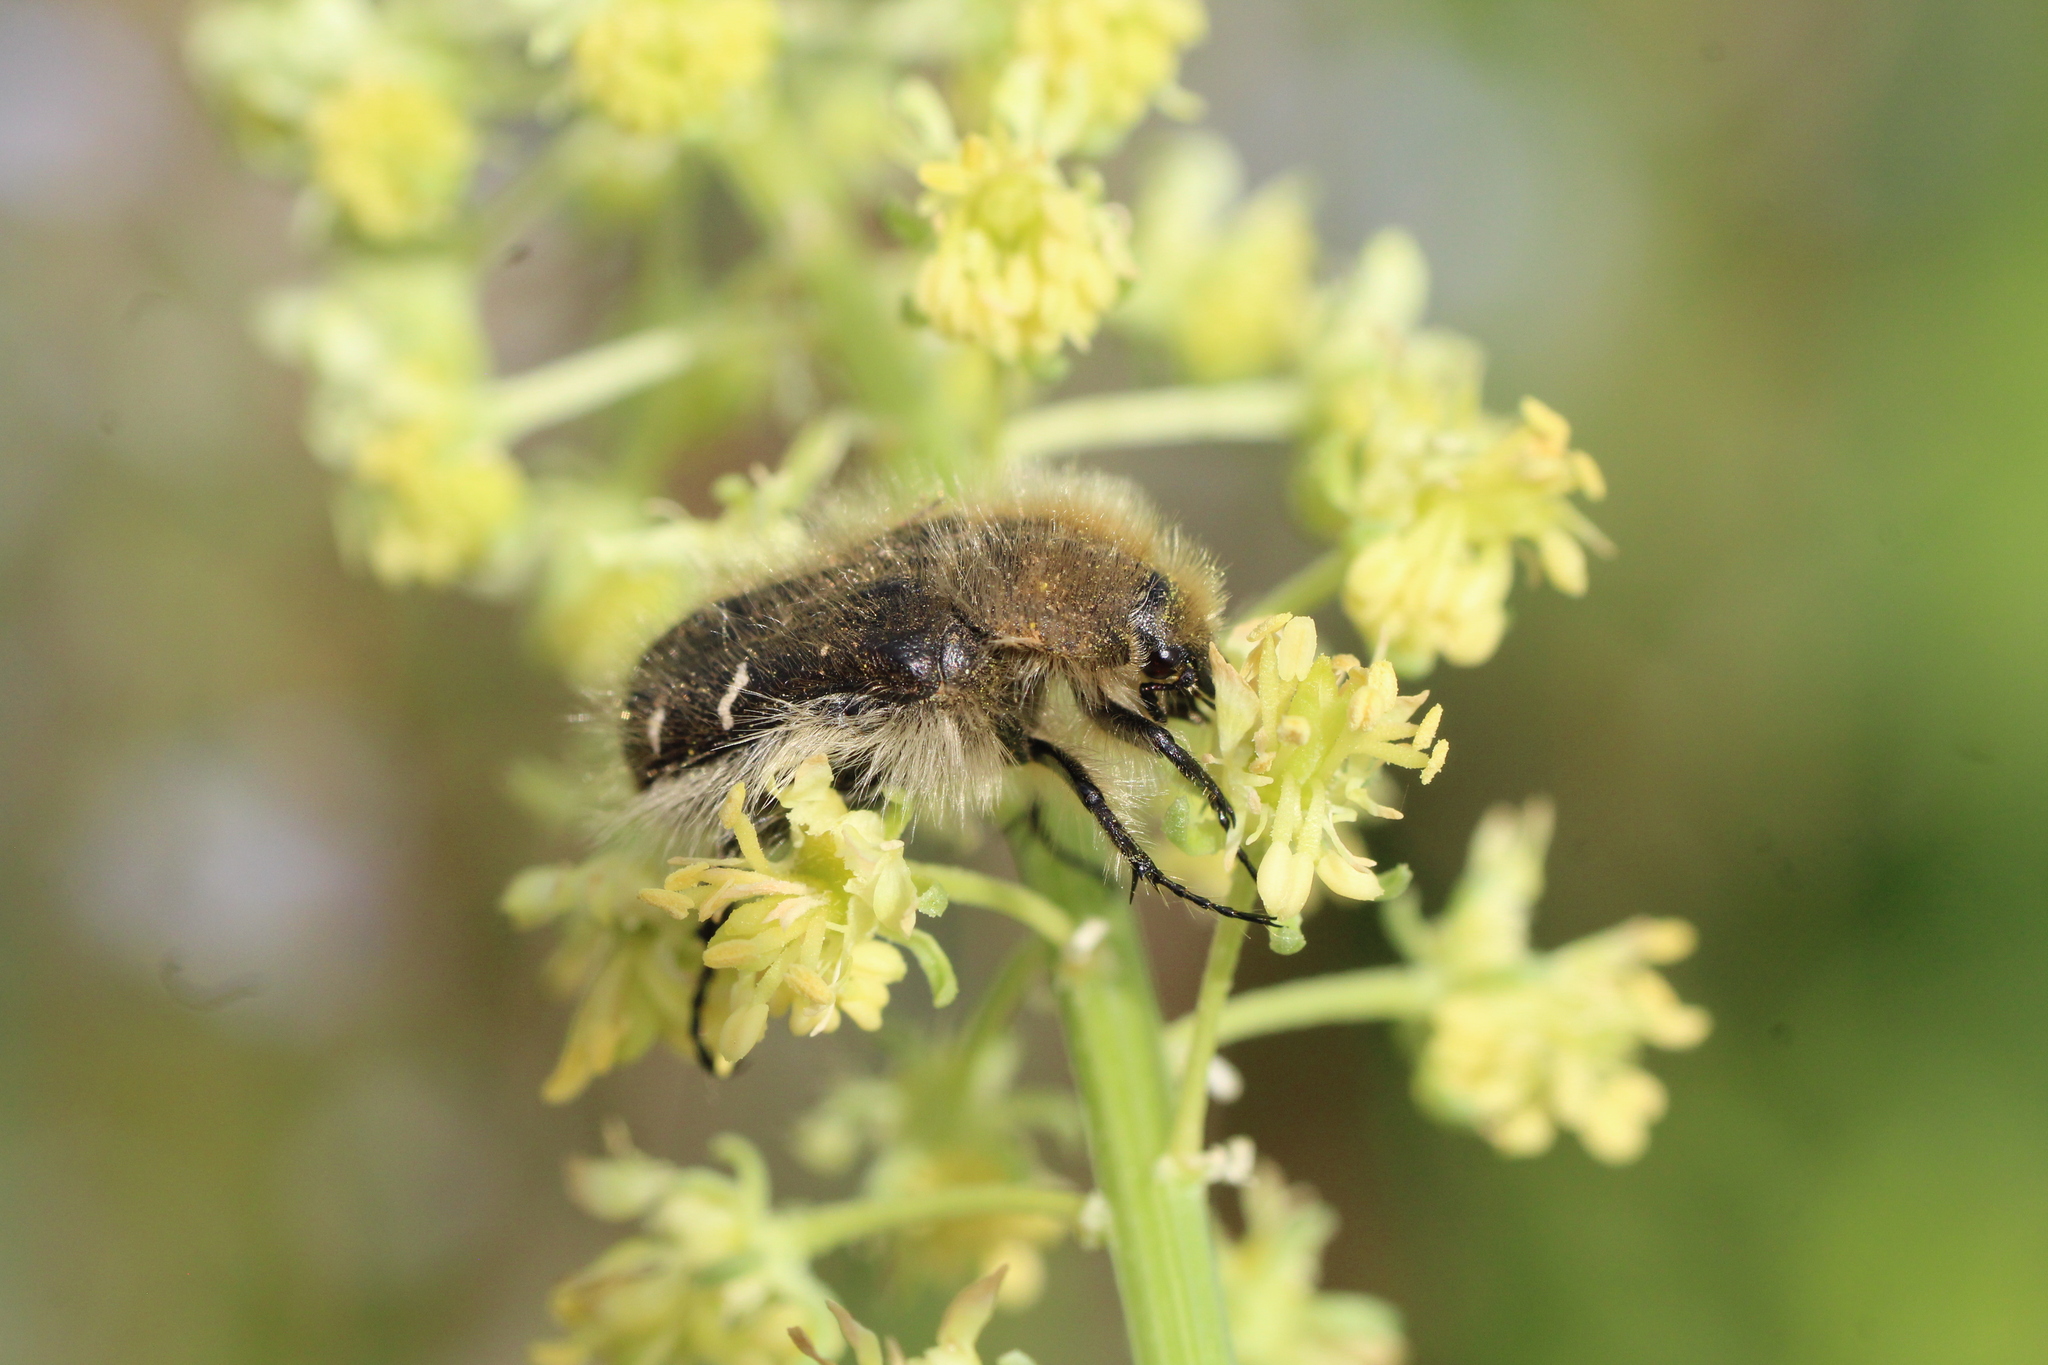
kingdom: Animalia
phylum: Arthropoda
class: Insecta
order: Coleoptera
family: Scarabaeidae
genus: Tropinota
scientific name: Tropinota hirta
